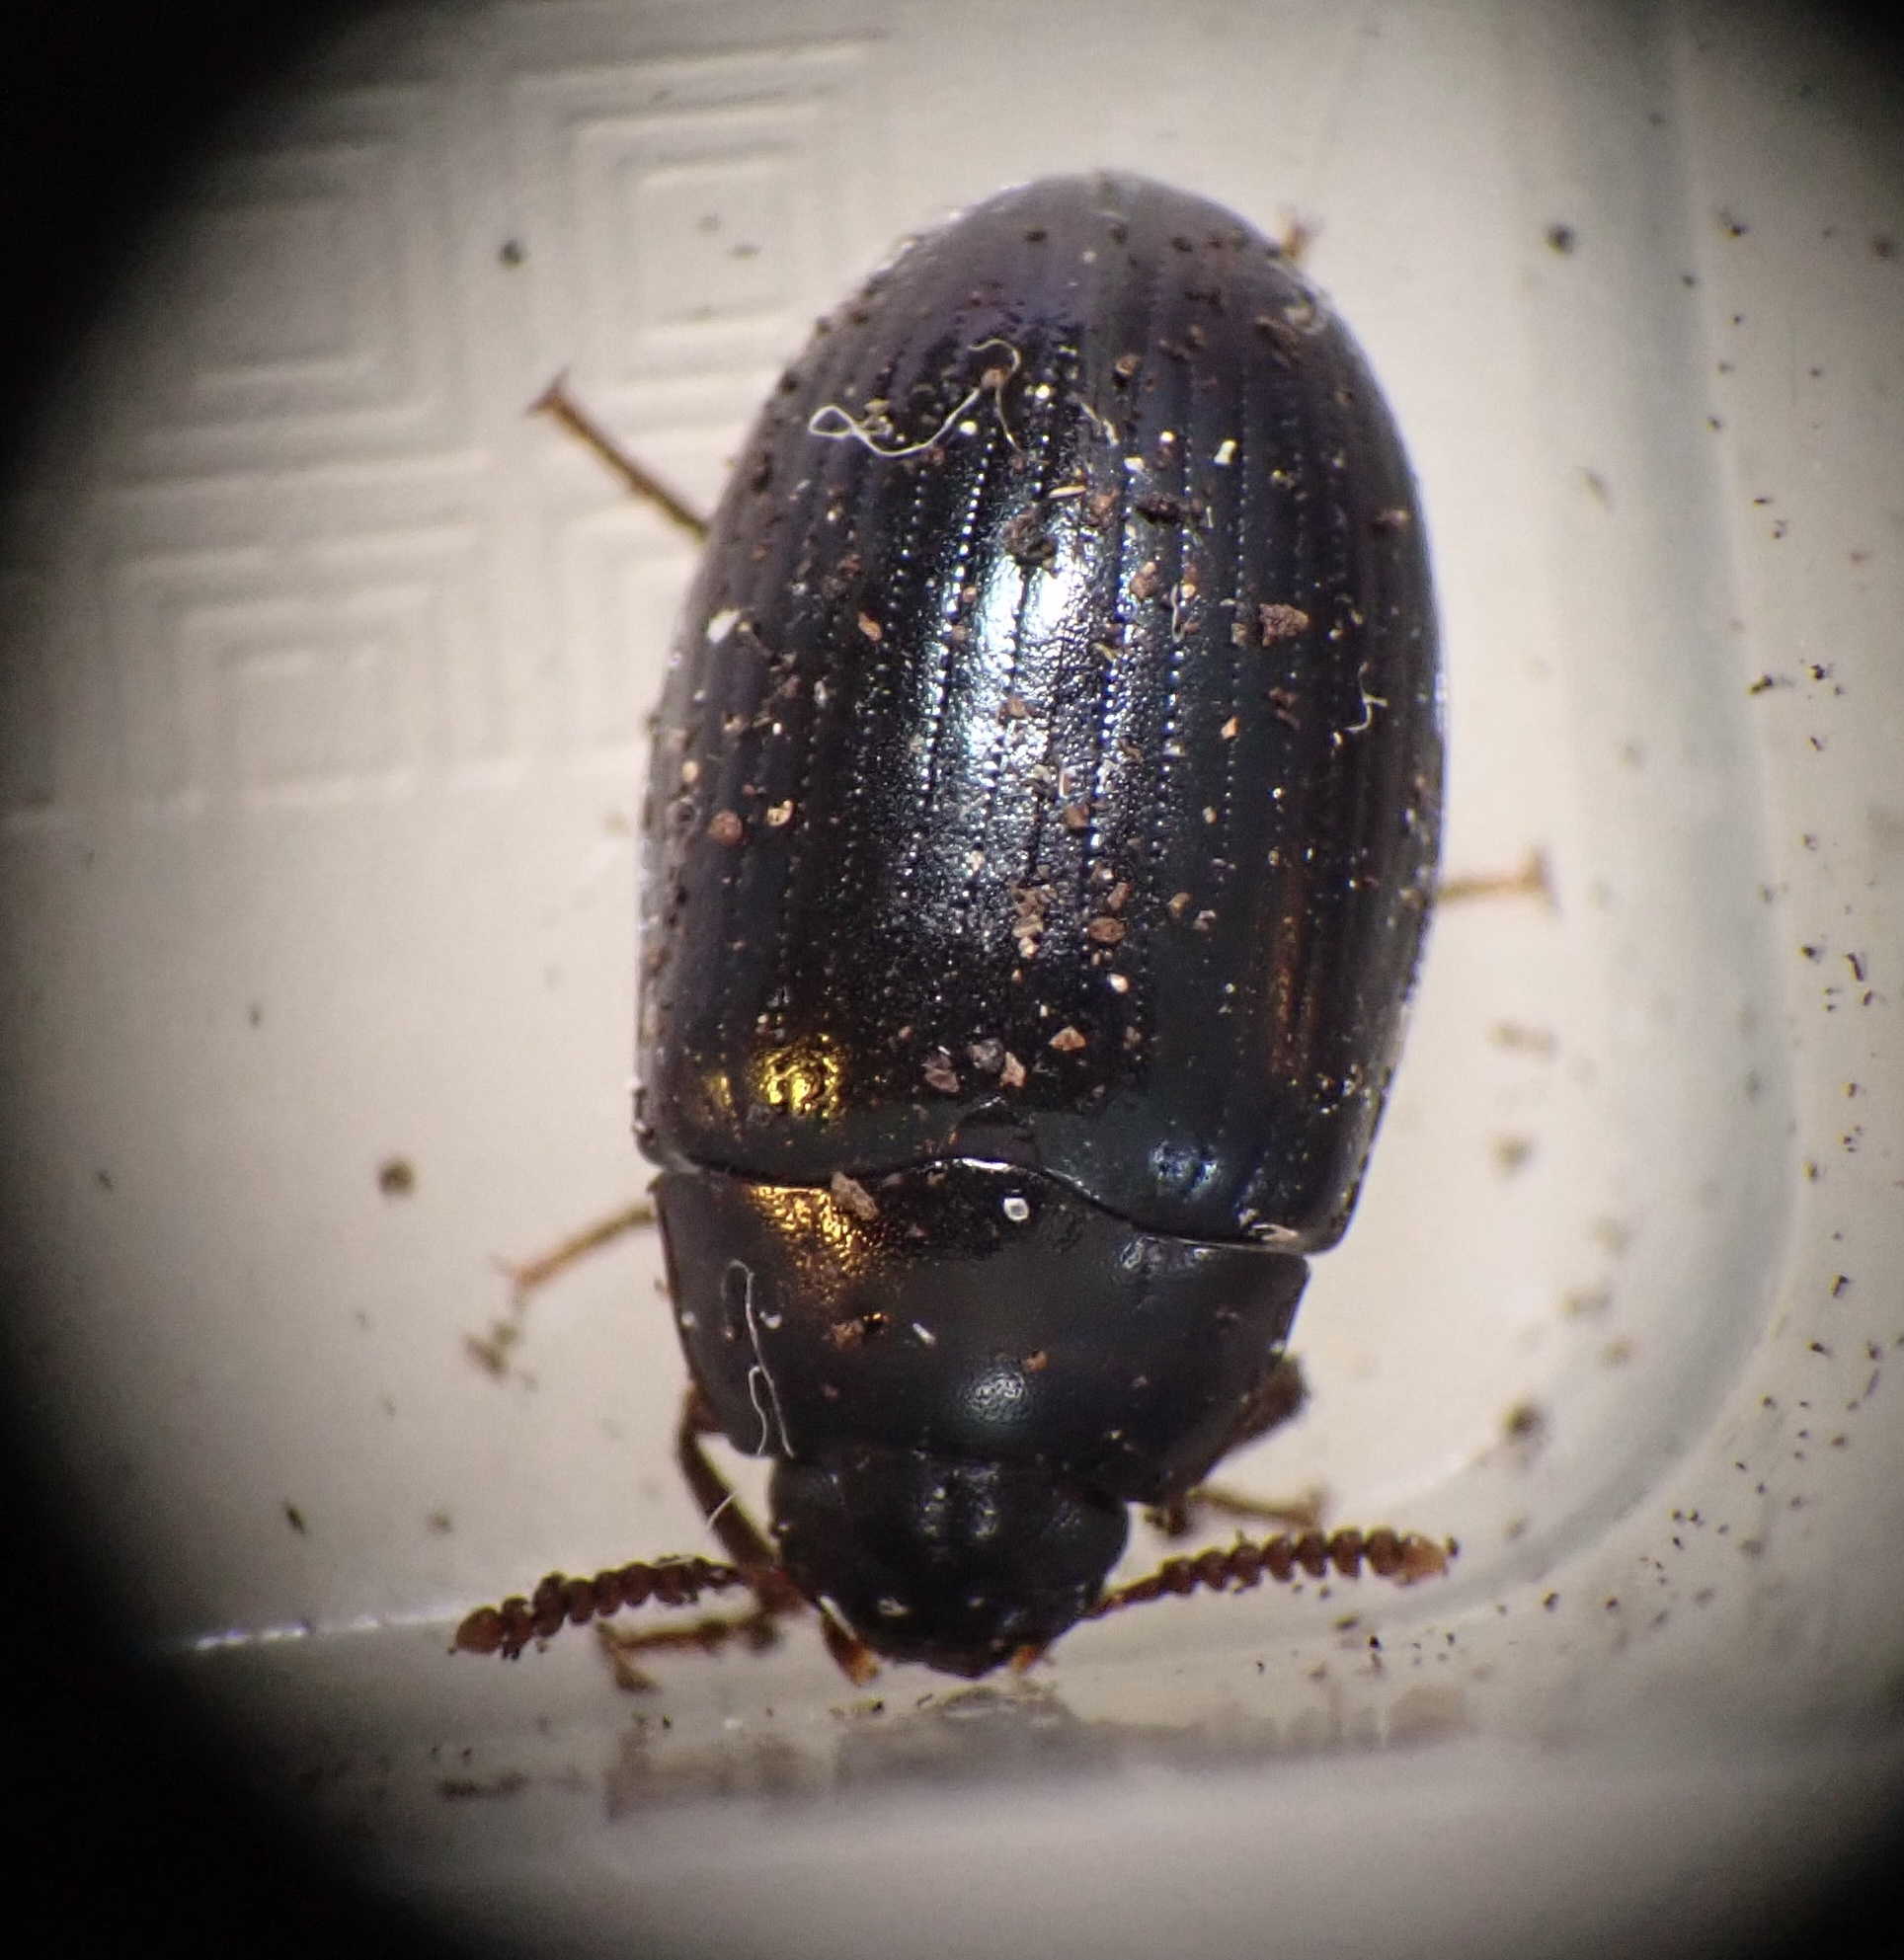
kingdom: Animalia
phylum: Arthropoda
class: Insecta
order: Coleoptera
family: Tenebrionidae
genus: Platydema
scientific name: Platydema violaceum
